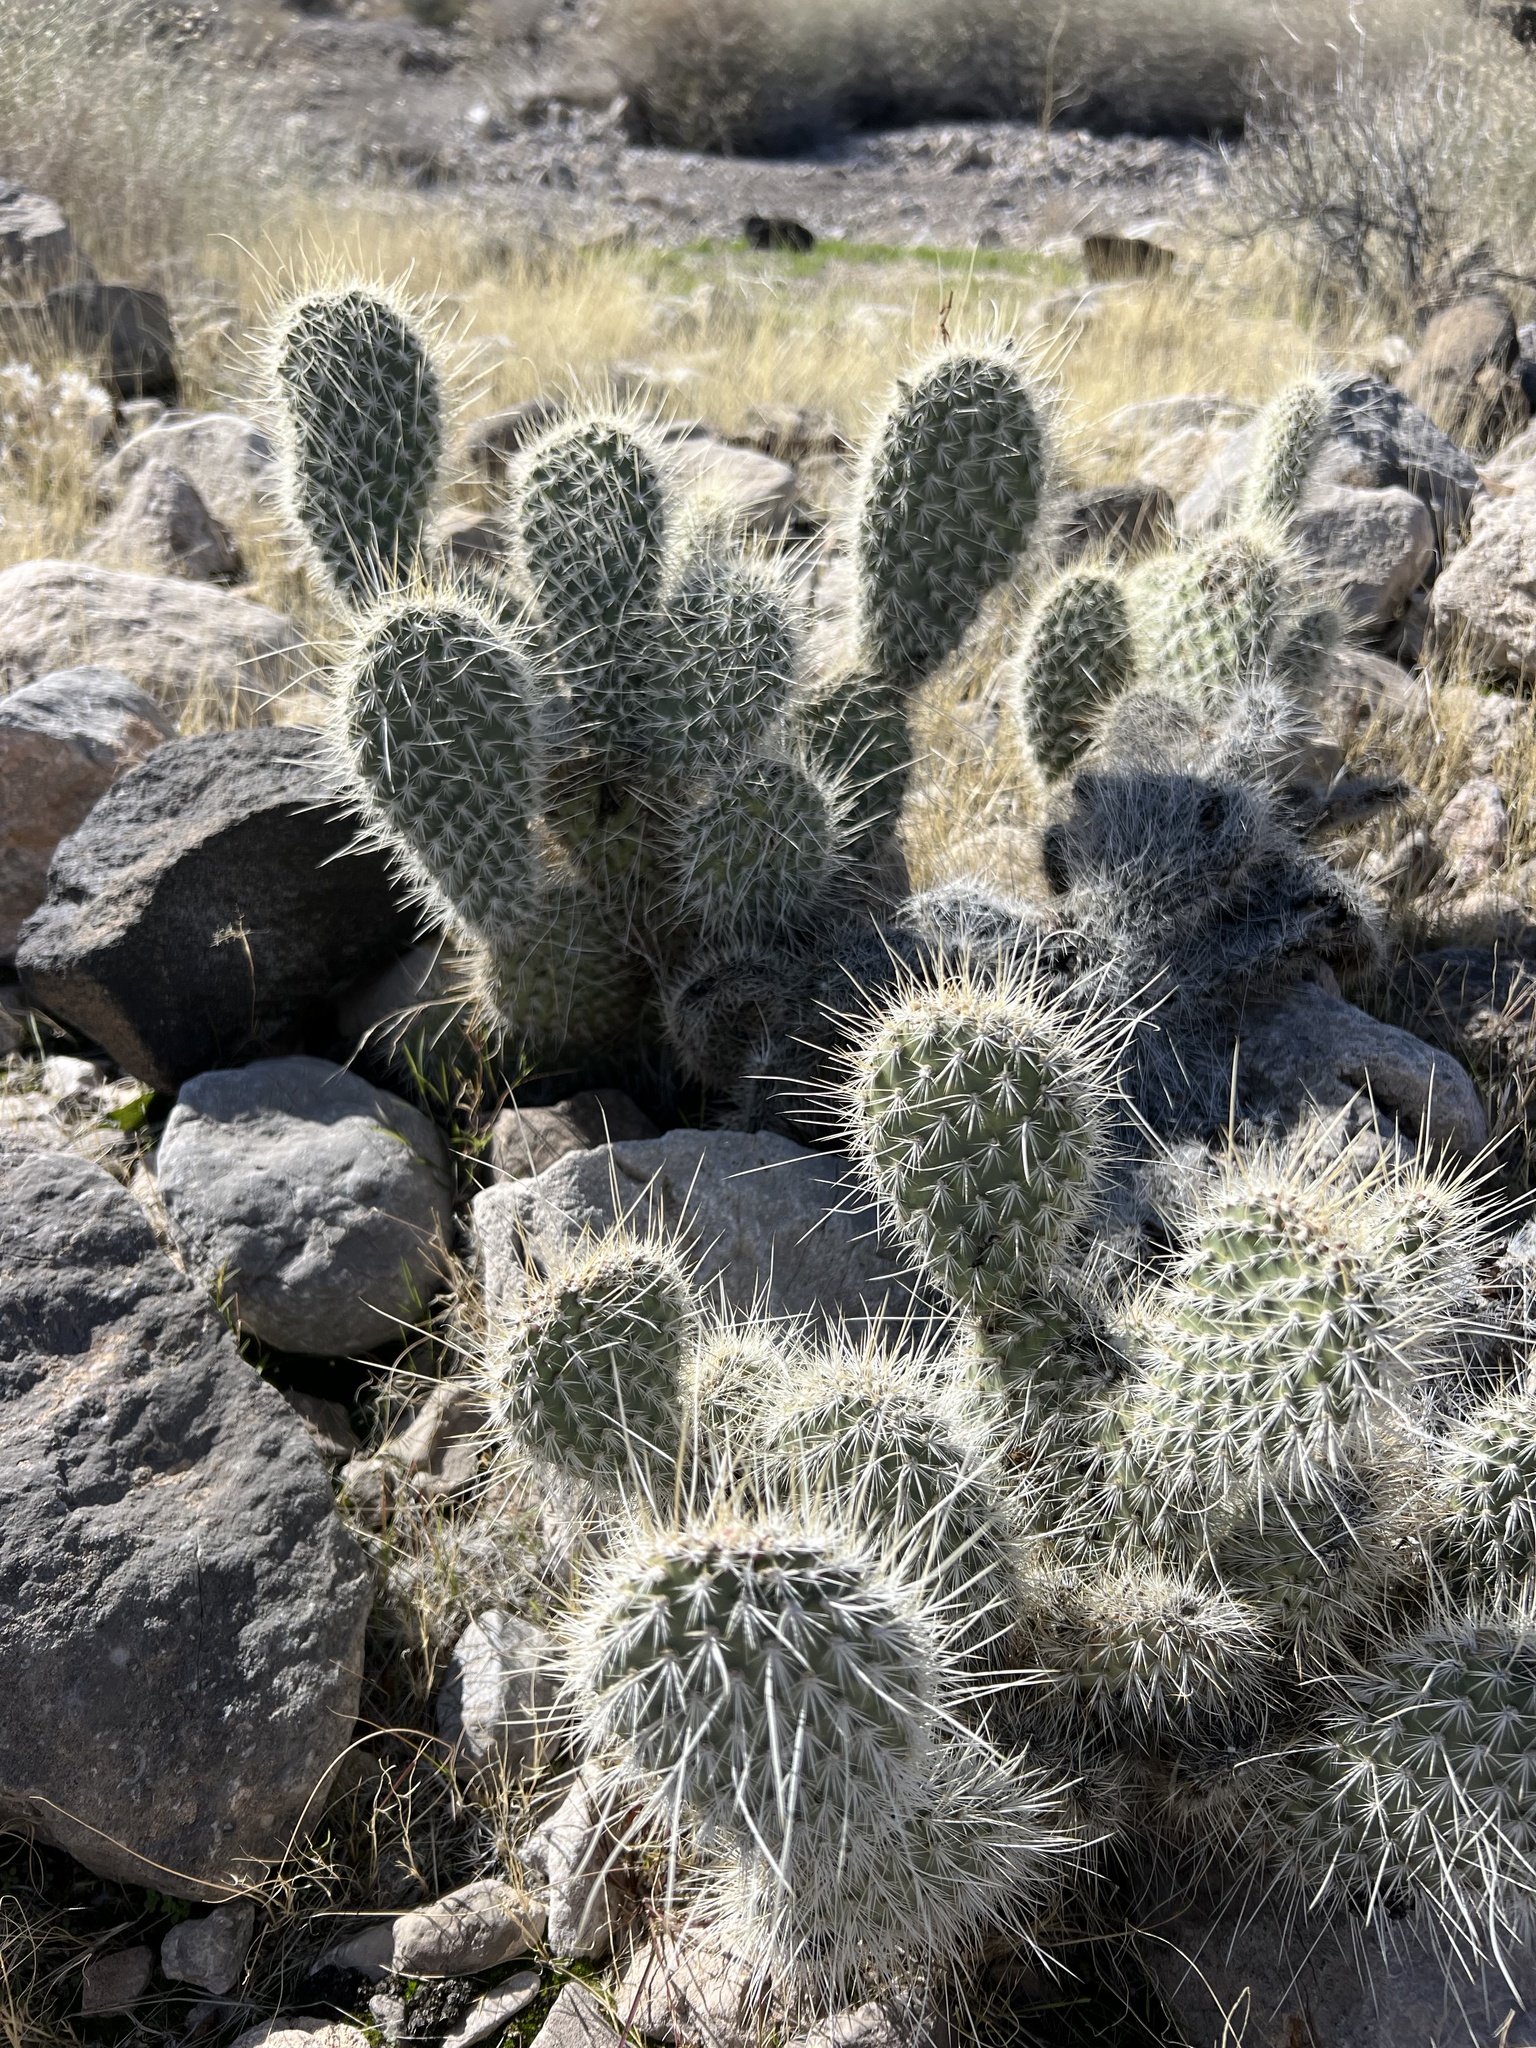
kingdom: Plantae
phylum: Tracheophyta
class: Magnoliopsida
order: Caryophyllales
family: Cactaceae
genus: Opuntia
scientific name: Opuntia polyacantha
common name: Plains prickly-pear
